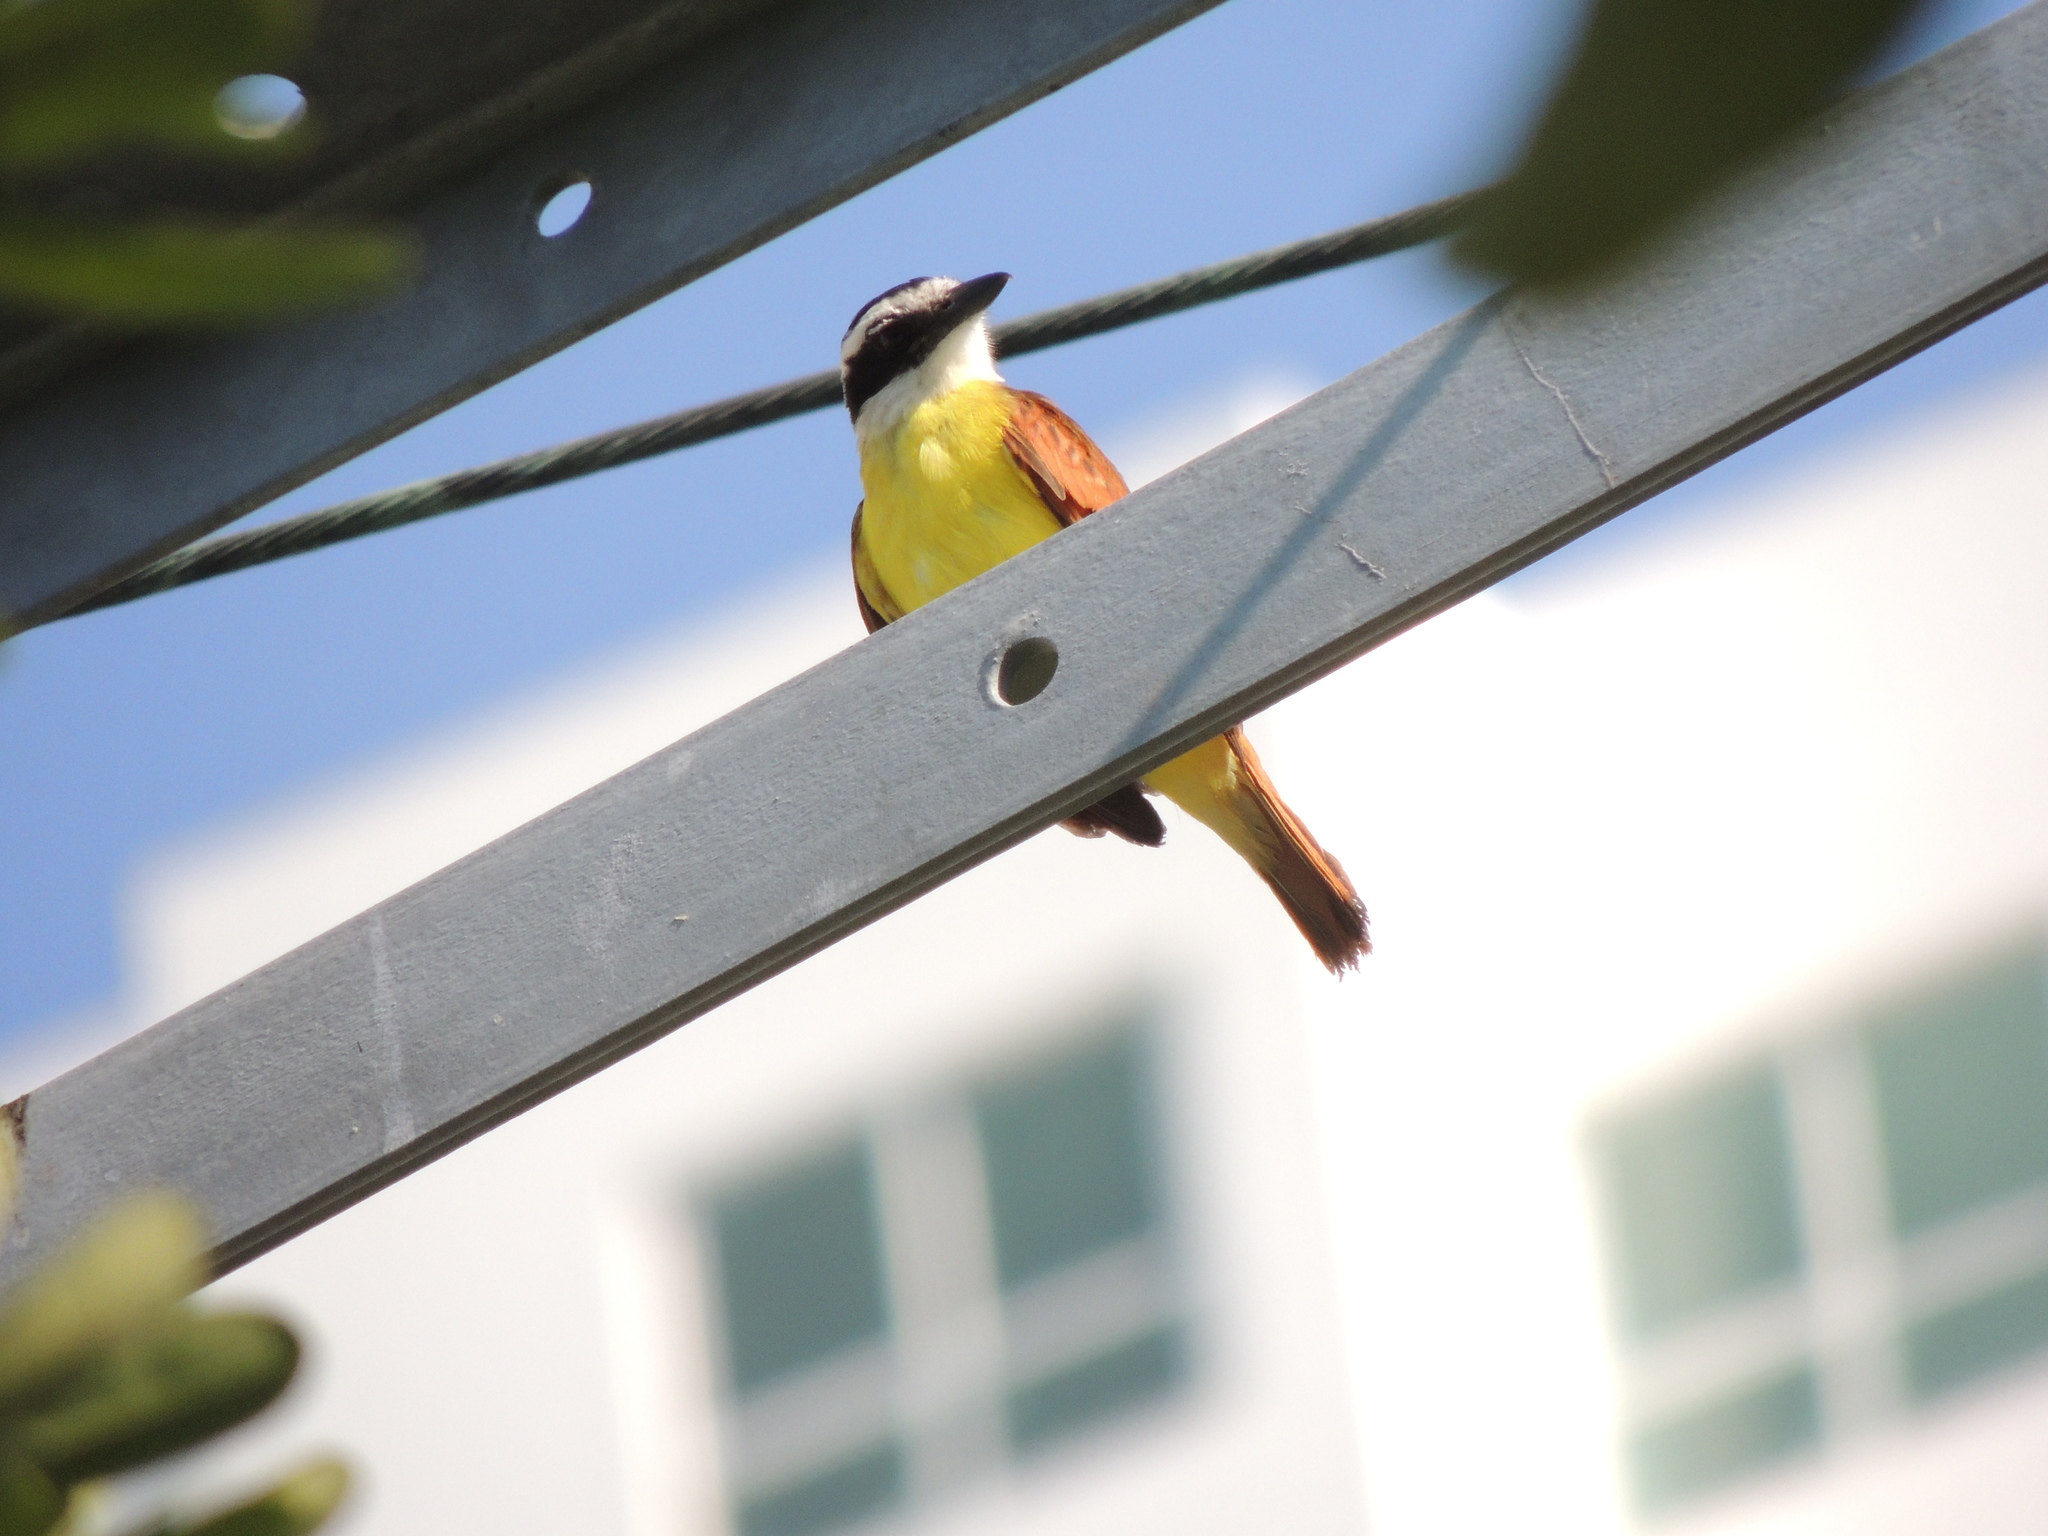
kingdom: Animalia
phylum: Chordata
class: Aves
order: Passeriformes
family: Tyrannidae
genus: Pitangus
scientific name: Pitangus sulphuratus
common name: Great kiskadee
